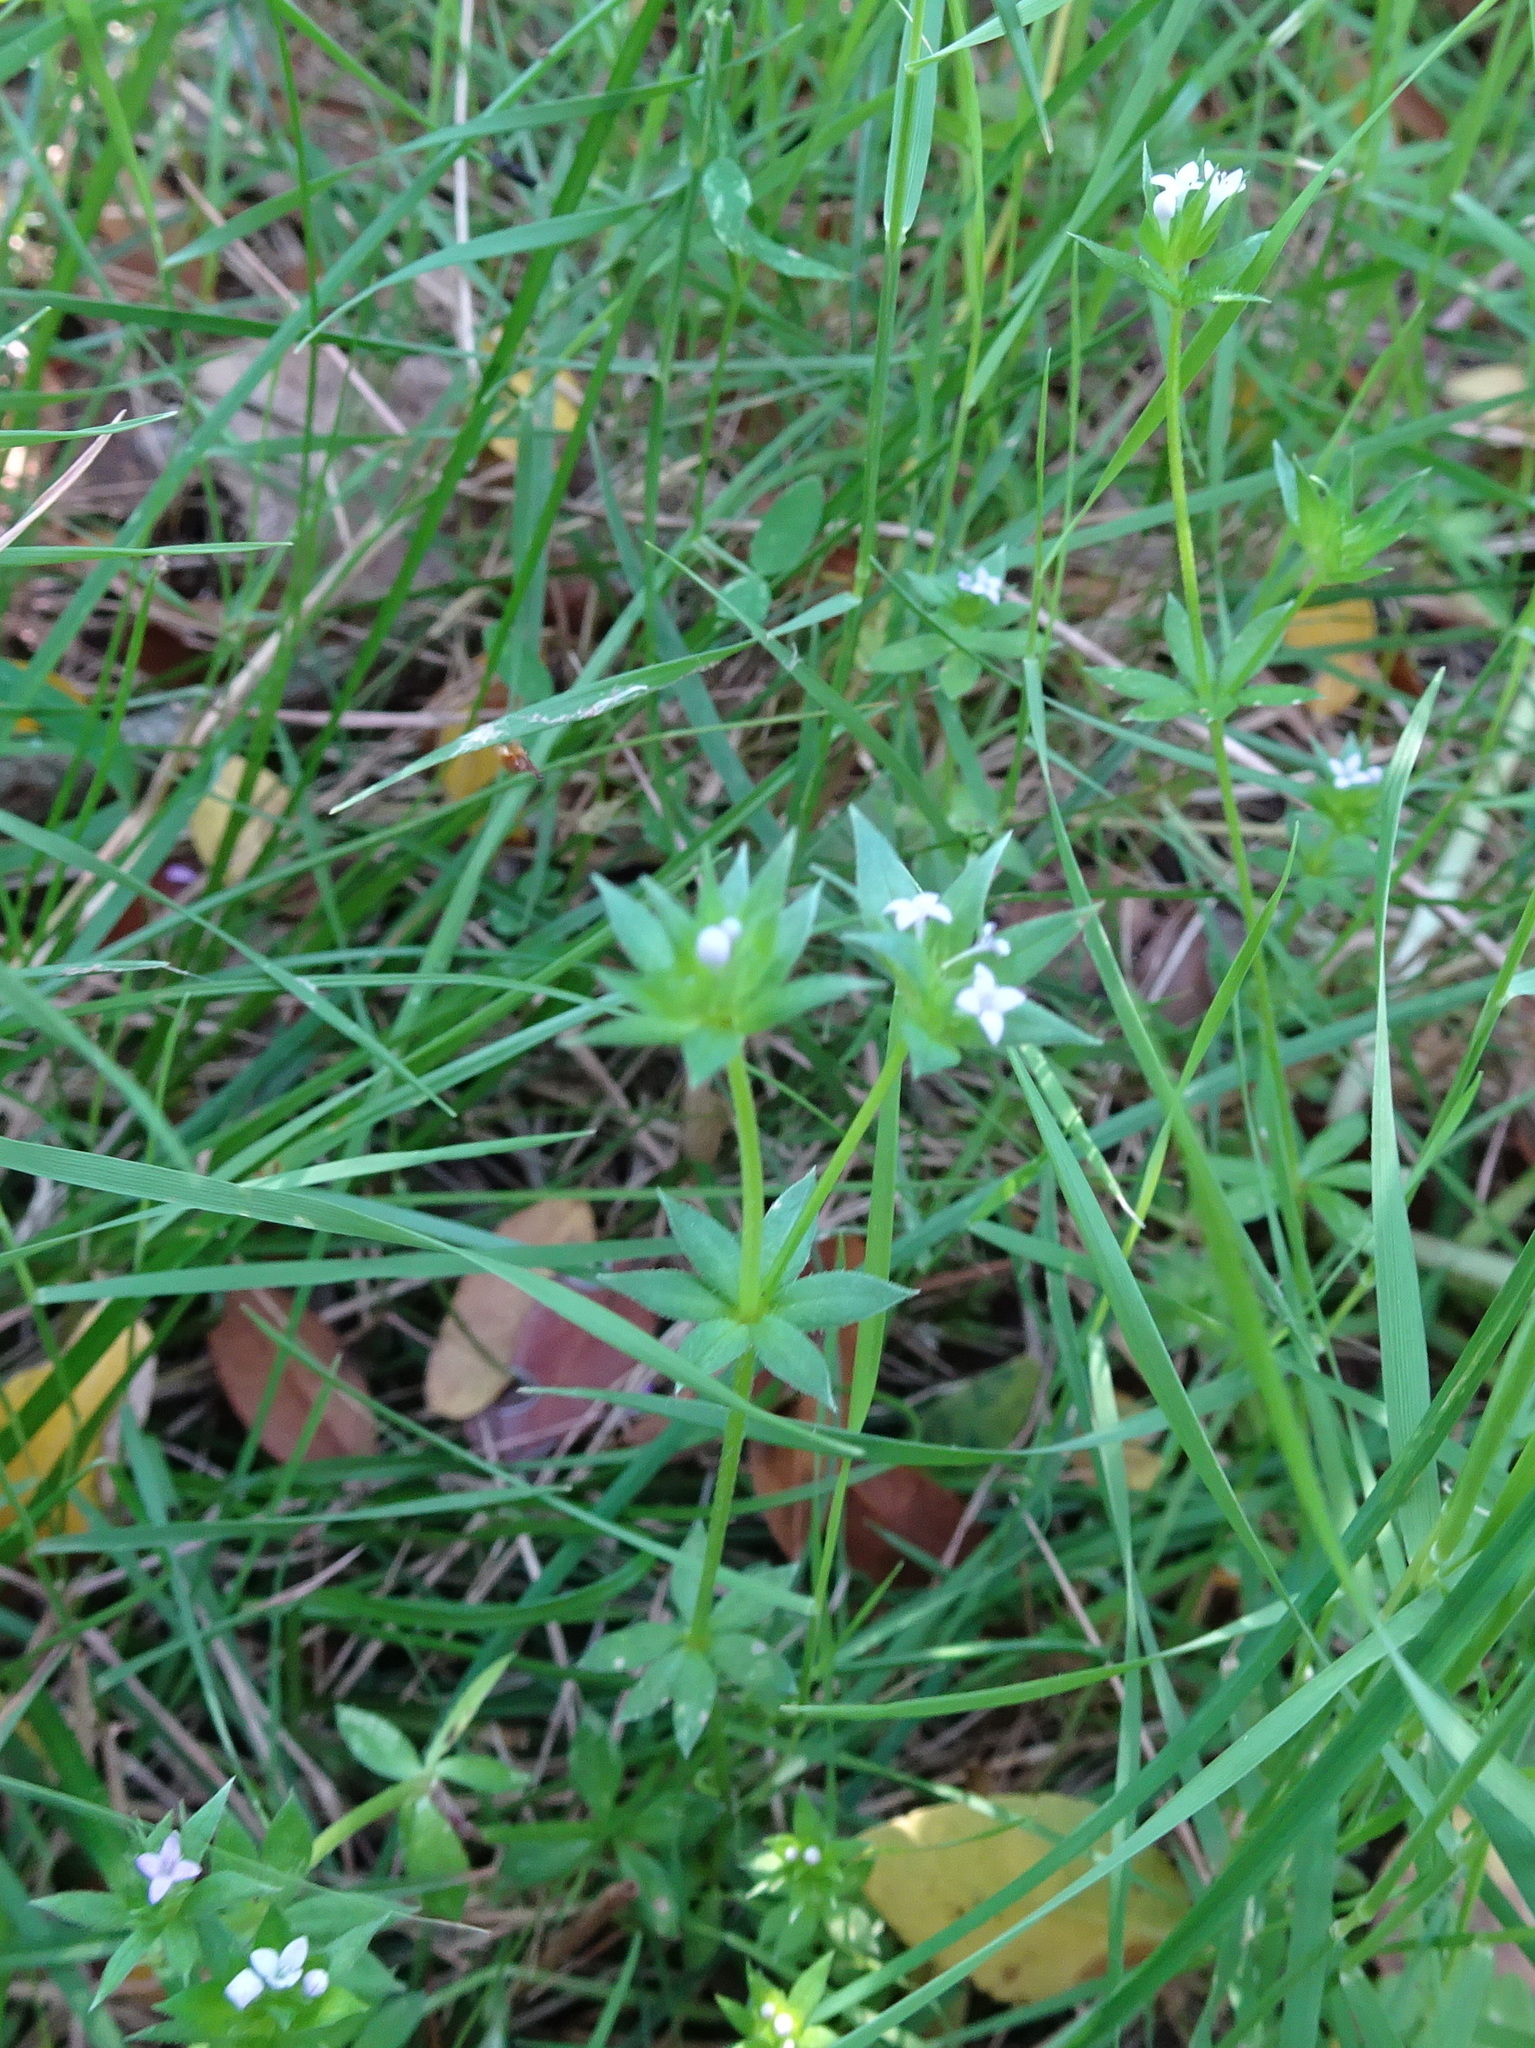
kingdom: Plantae
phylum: Tracheophyta
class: Magnoliopsida
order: Gentianales
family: Rubiaceae
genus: Sherardia
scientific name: Sherardia arvensis
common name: Field madder
